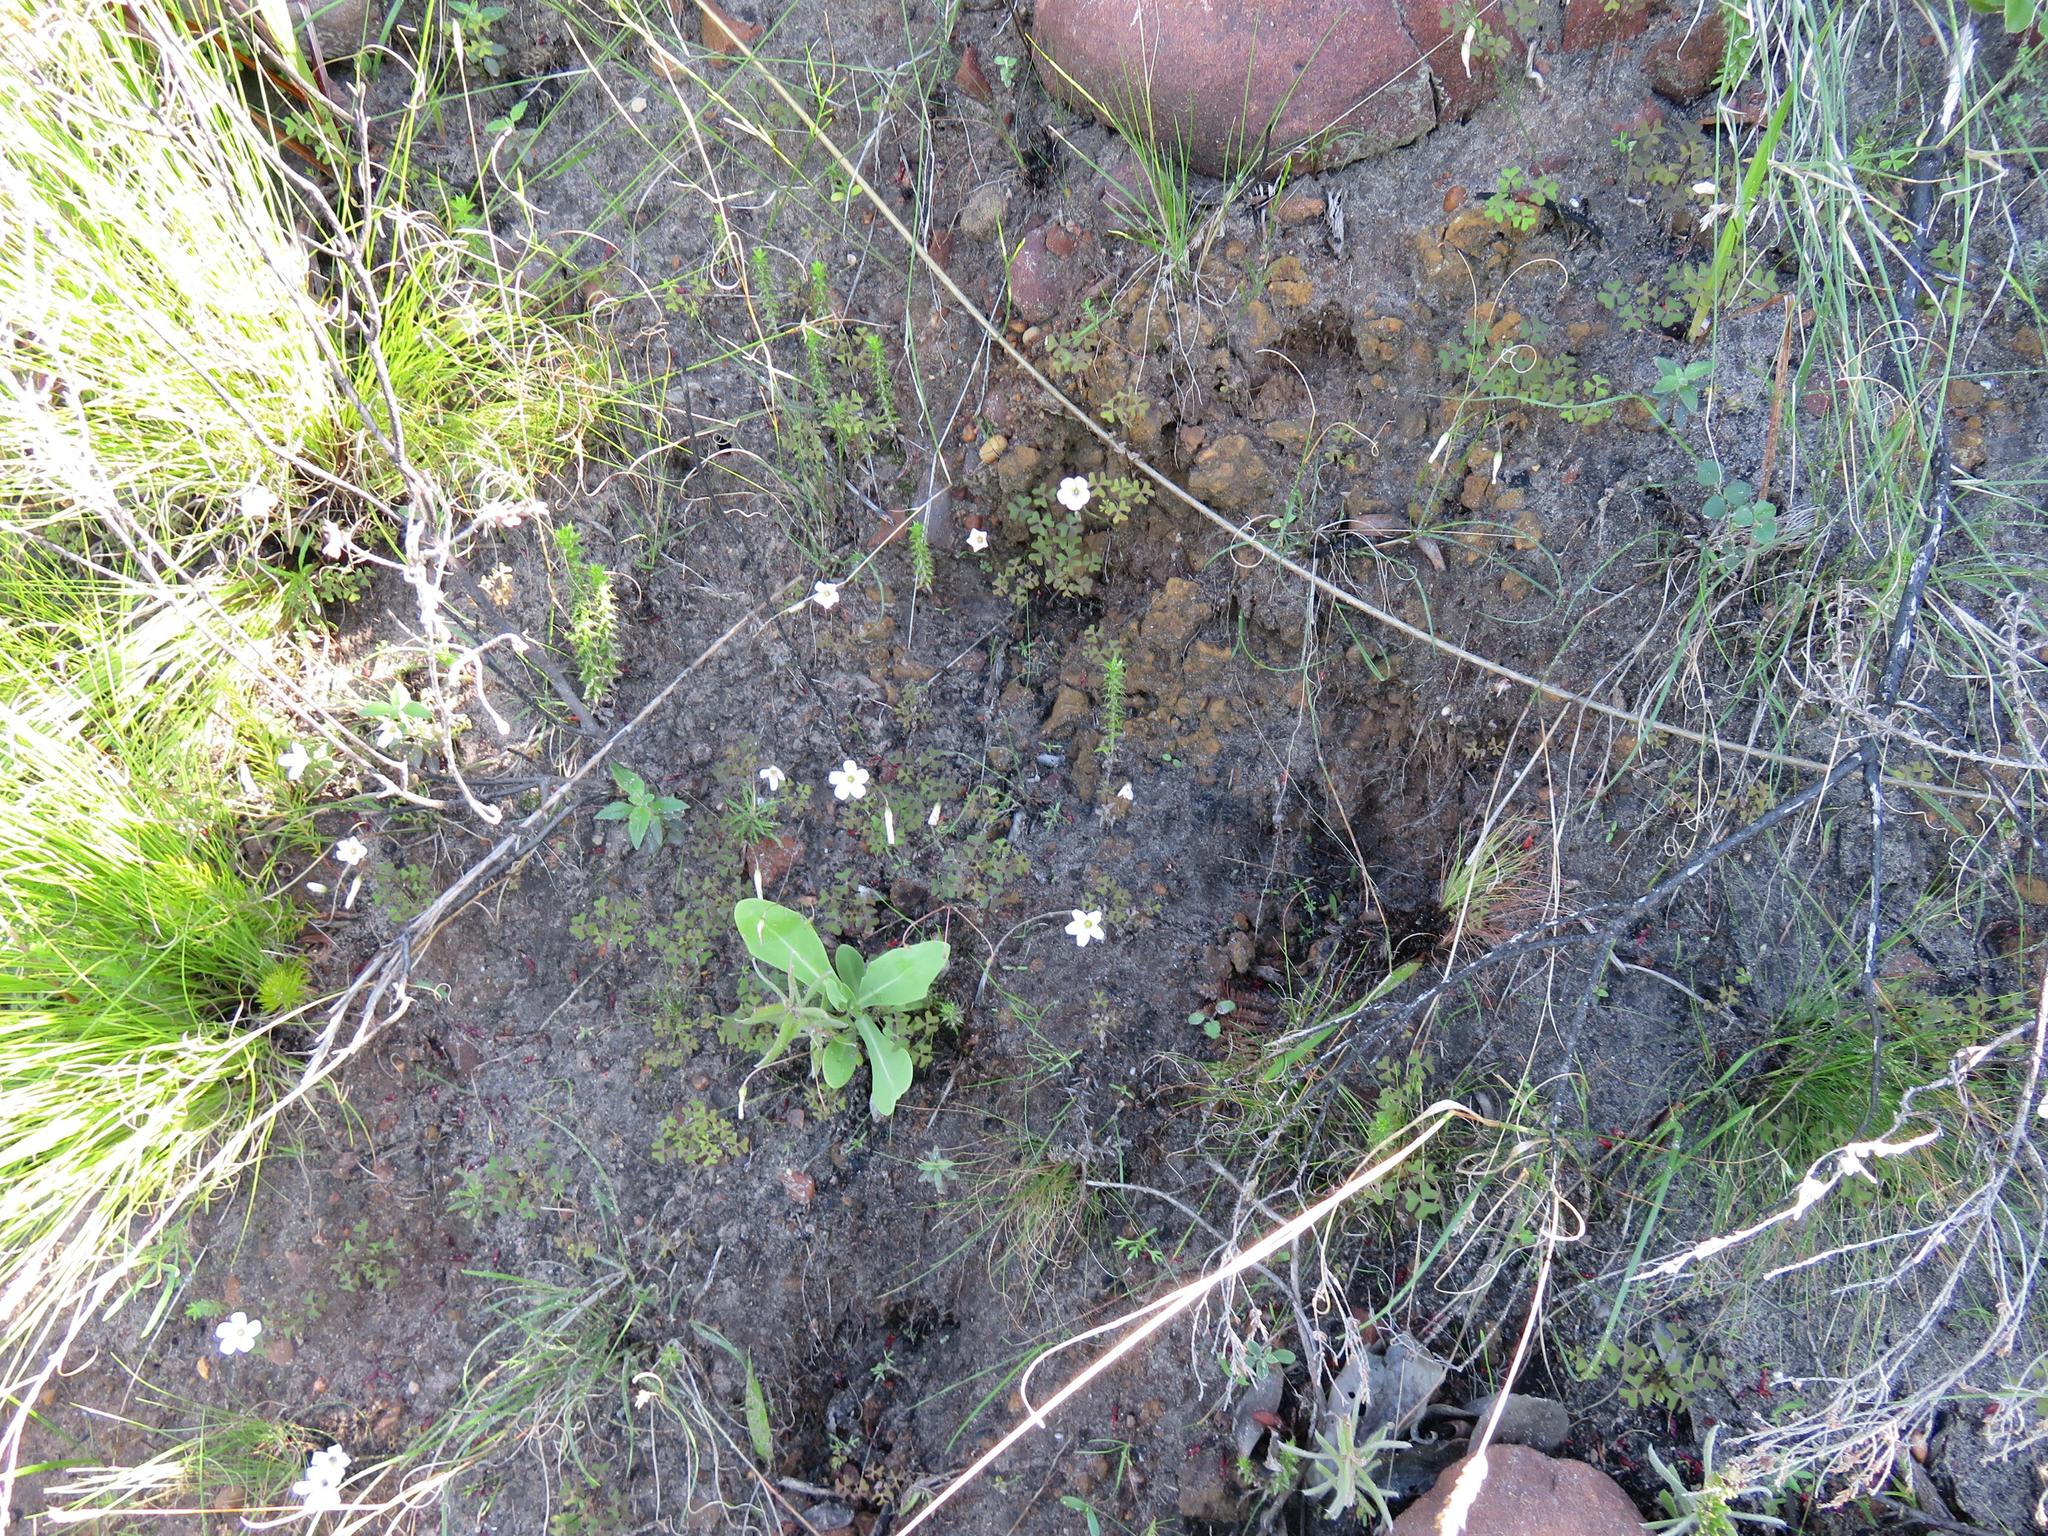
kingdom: Plantae
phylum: Tracheophyta
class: Magnoliopsida
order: Oxalidales
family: Oxalidaceae
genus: Oxalis
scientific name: Oxalis
